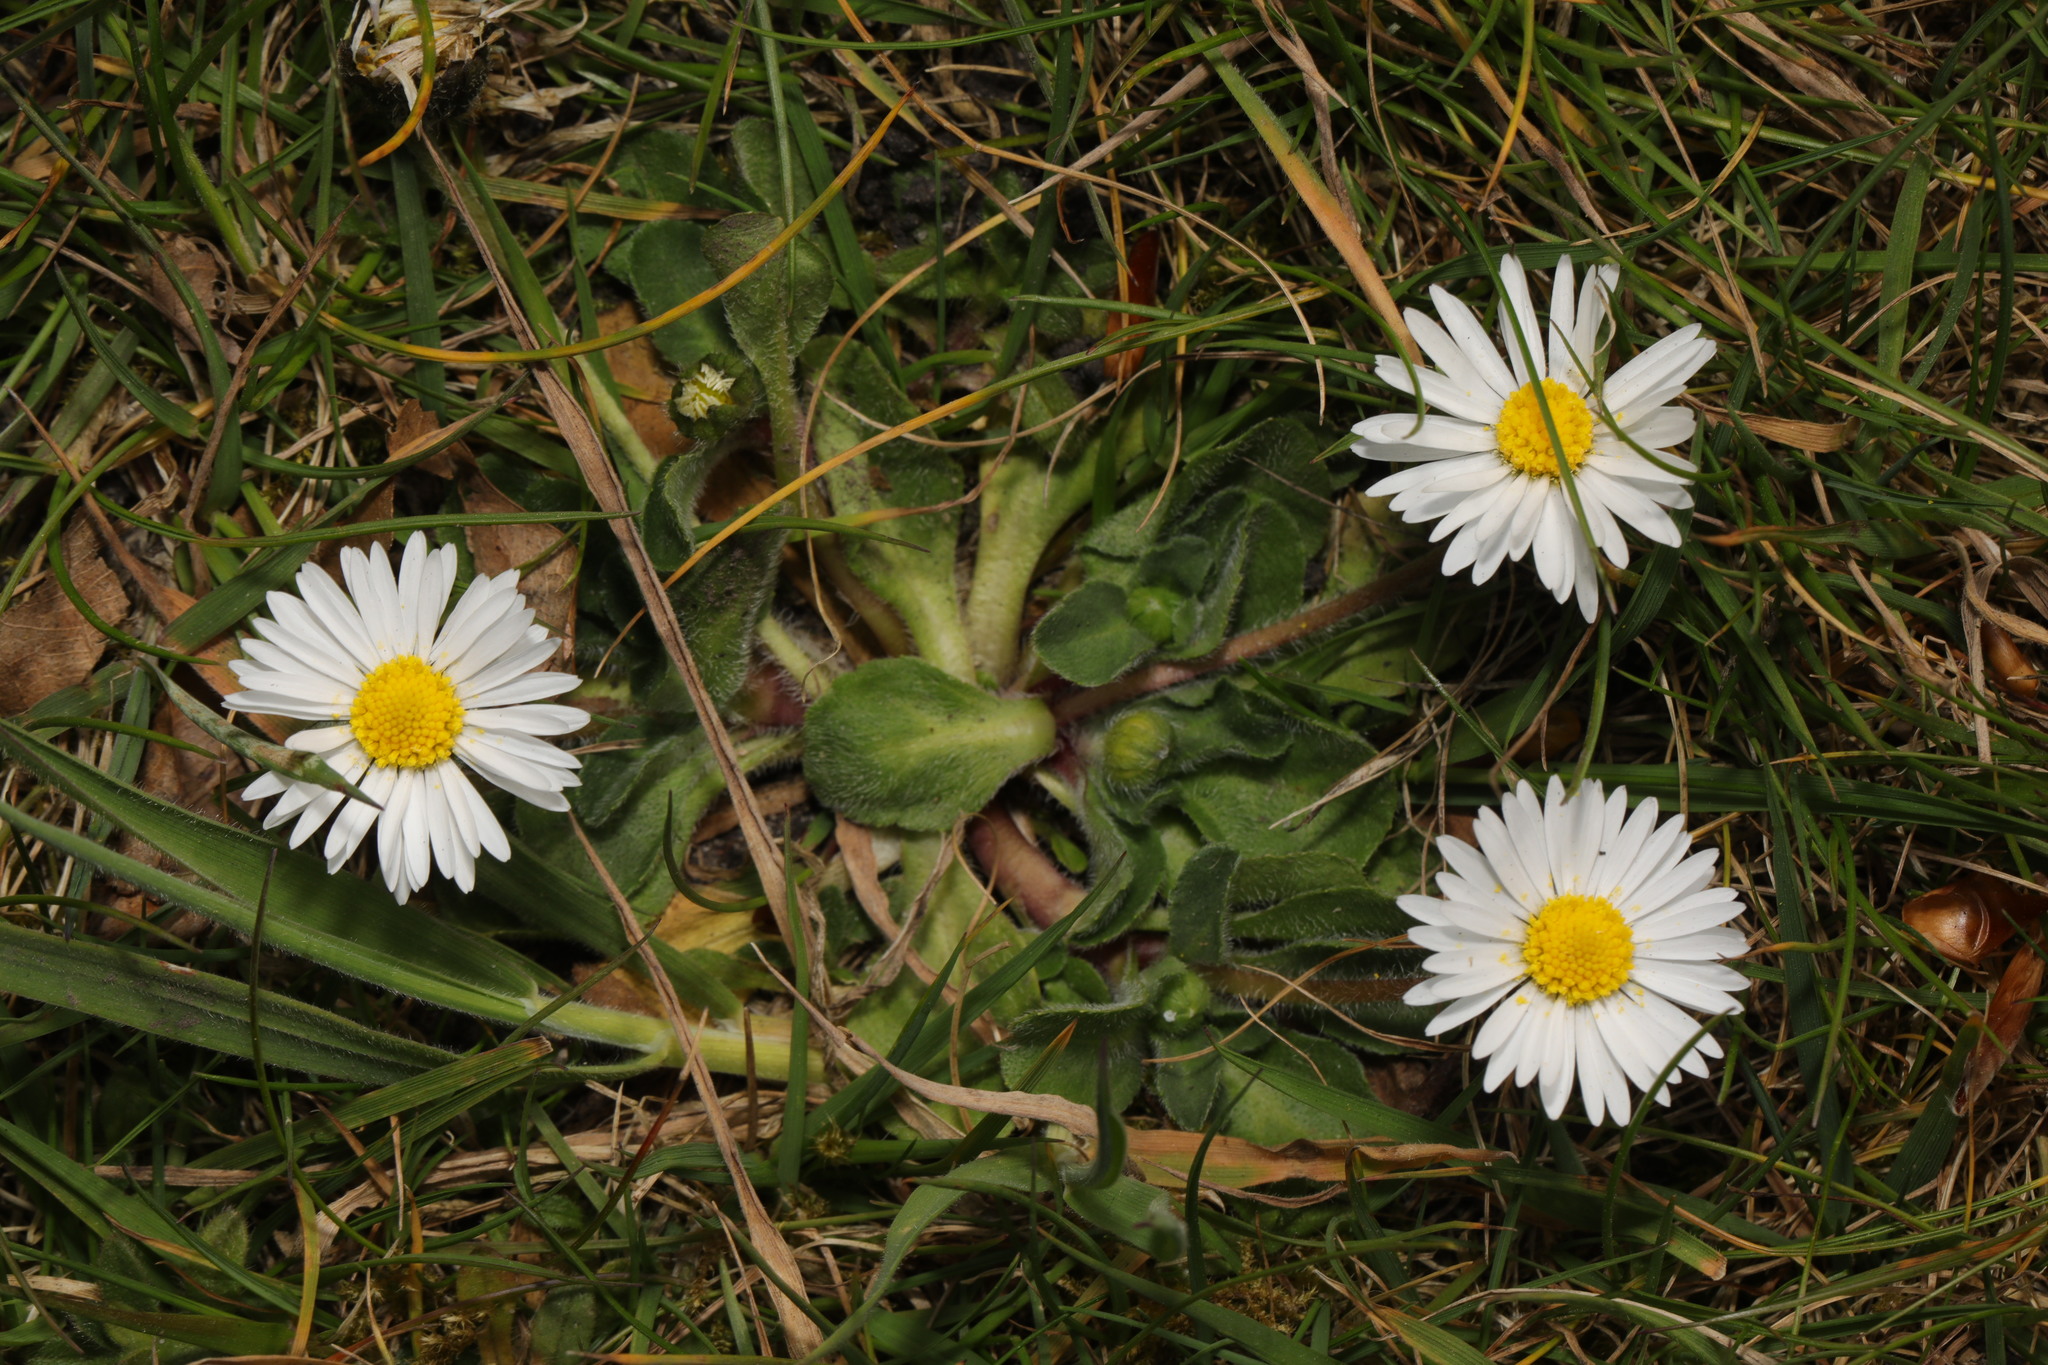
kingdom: Plantae
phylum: Tracheophyta
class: Magnoliopsida
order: Asterales
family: Asteraceae
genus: Bellis
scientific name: Bellis perennis
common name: Lawndaisy
